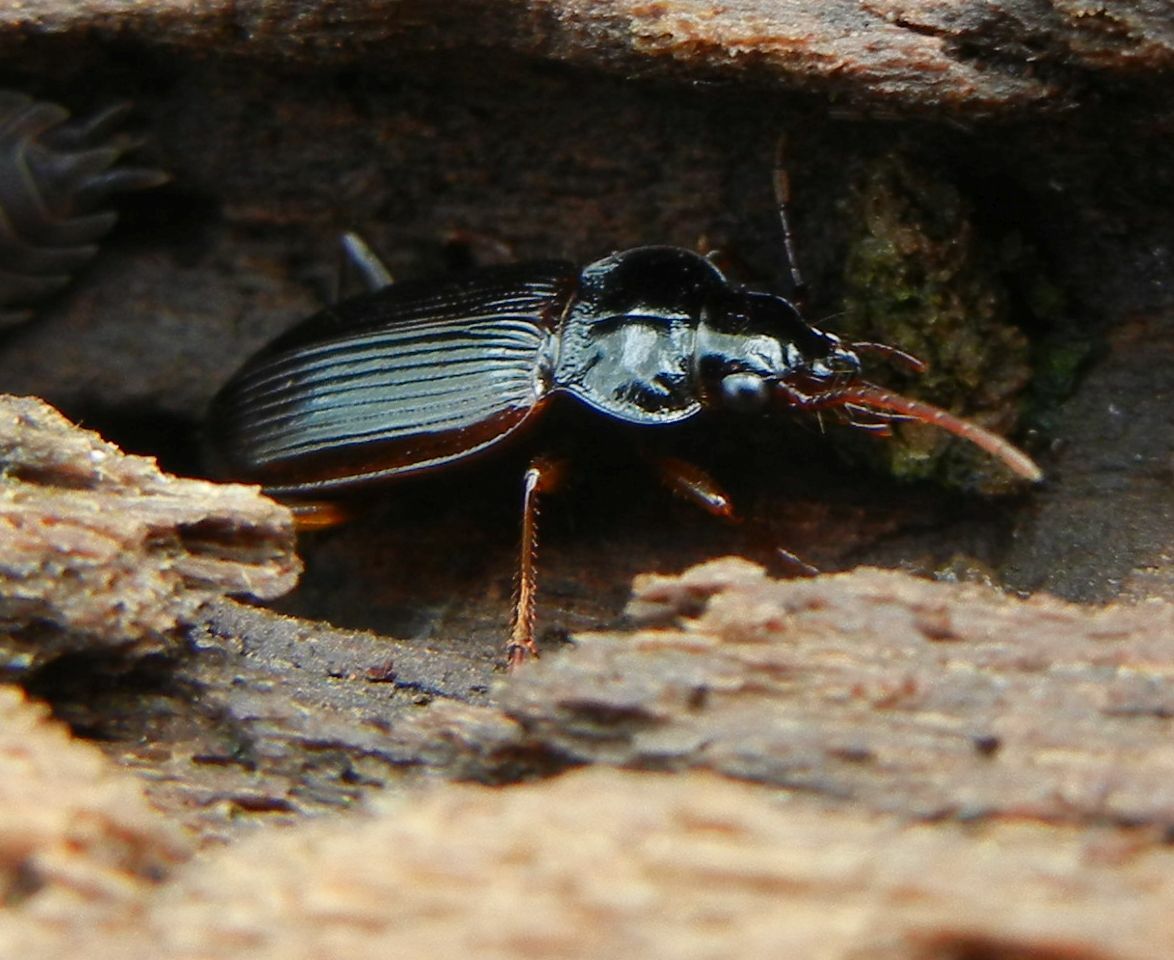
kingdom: Animalia
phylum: Arthropoda
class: Insecta
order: Coleoptera
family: Carabidae
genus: Nebria
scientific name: Nebria brevicollis
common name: Short-necked gazelle beetle
